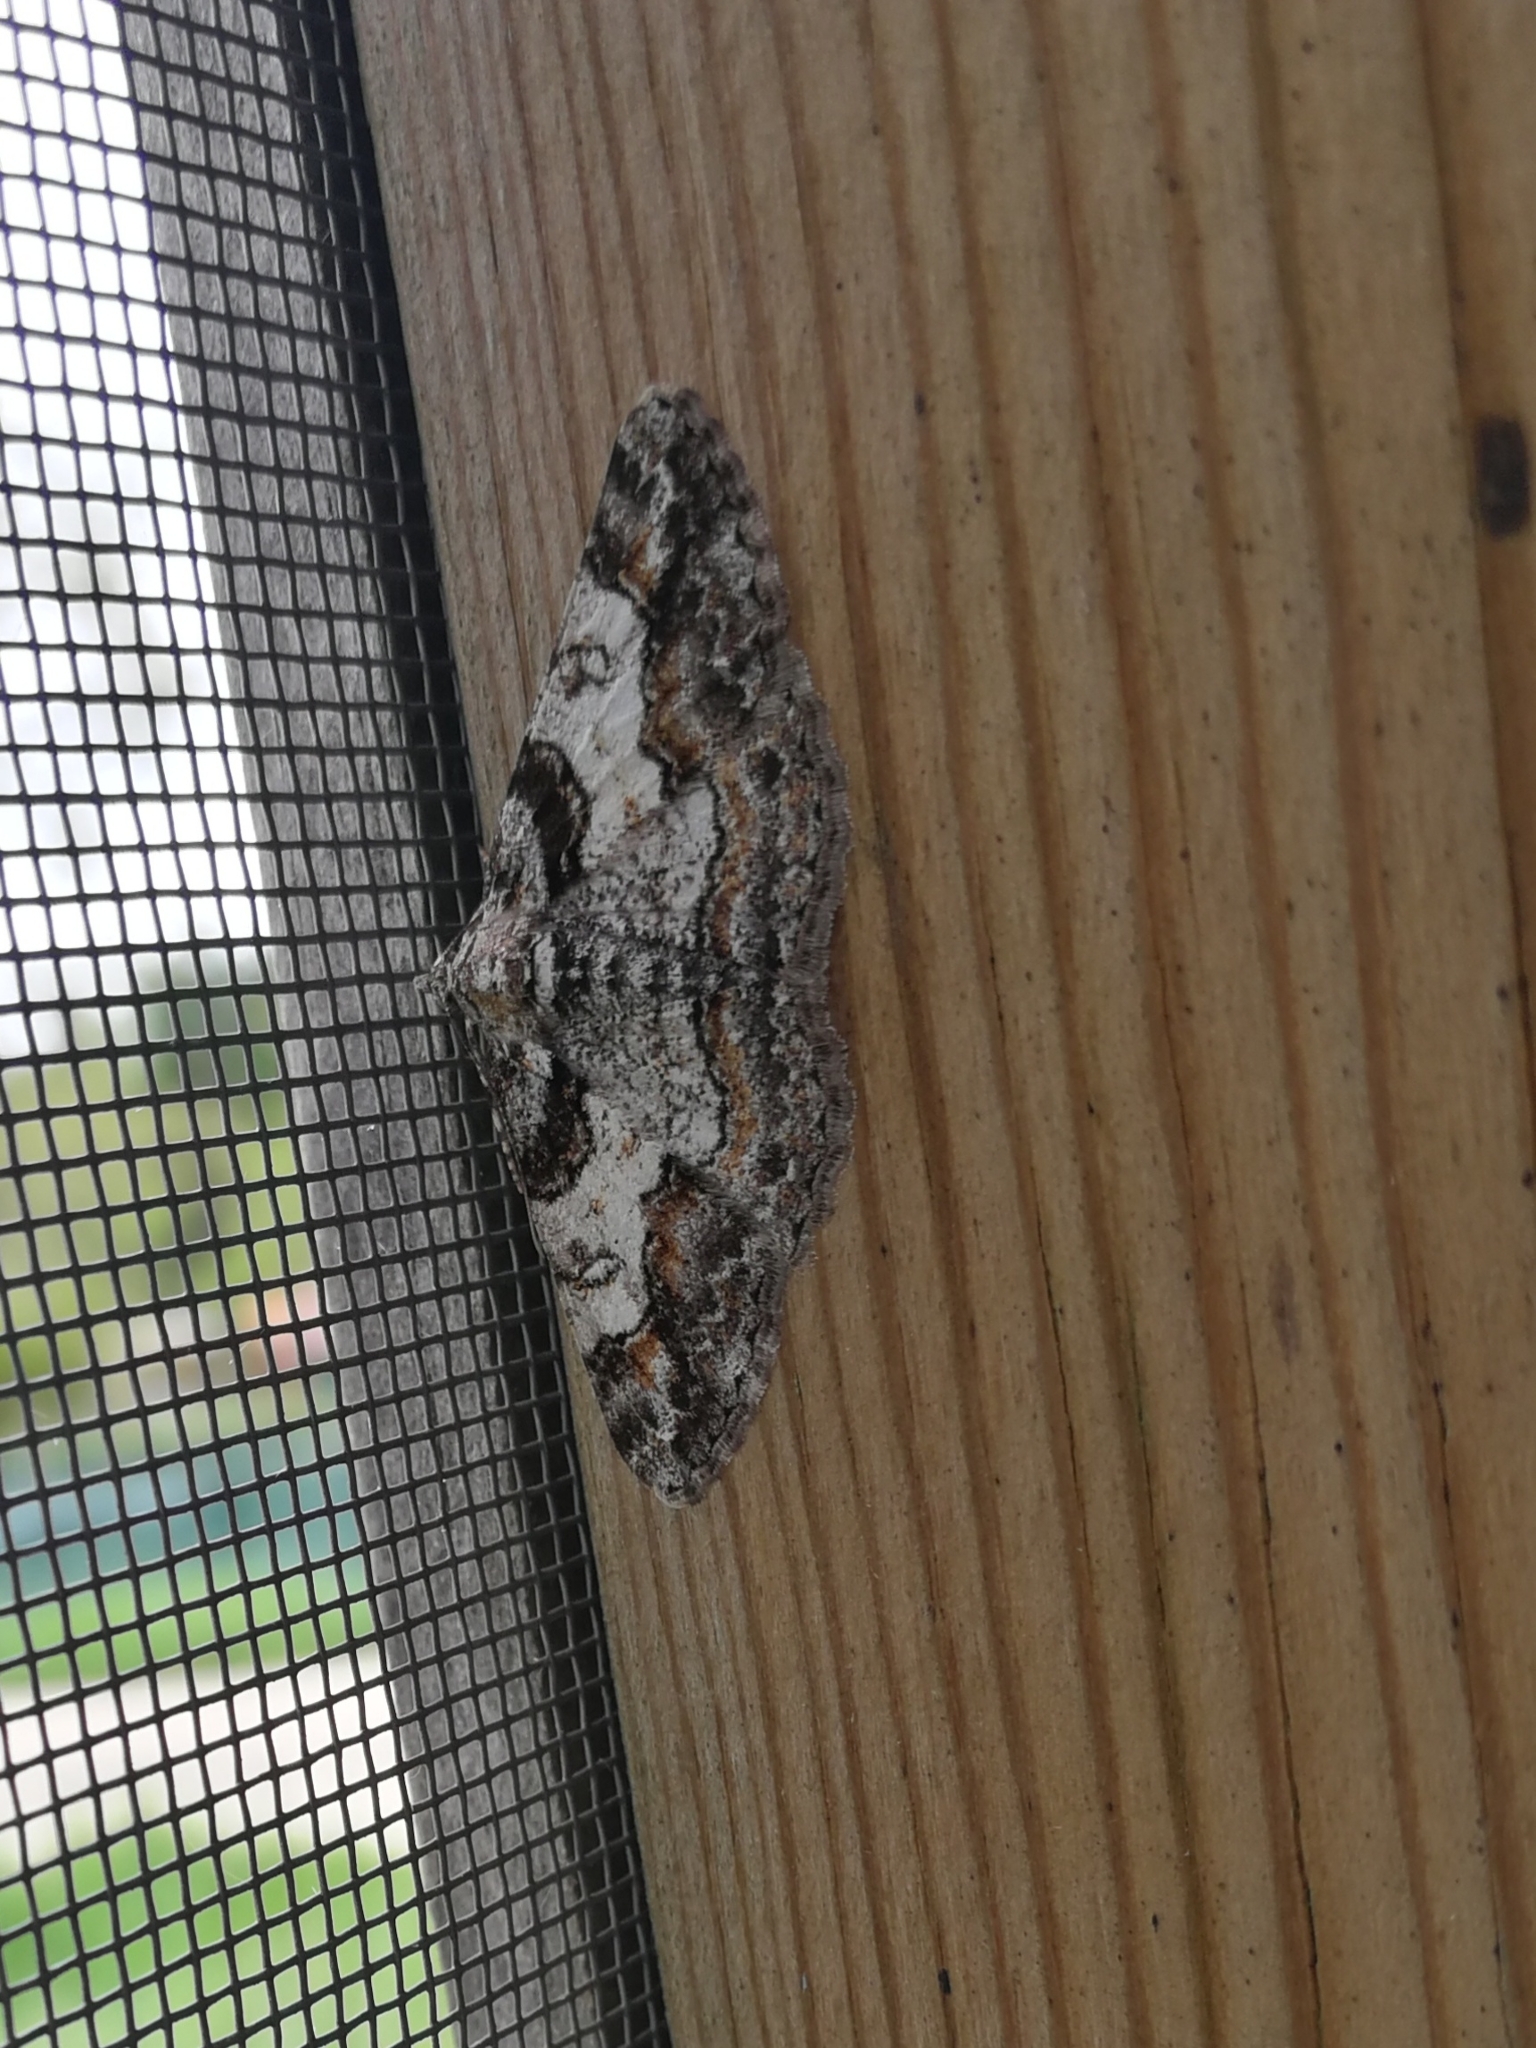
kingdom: Animalia
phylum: Arthropoda
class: Insecta
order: Lepidoptera
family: Geometridae
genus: Cleora
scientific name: Cleora cinctaria
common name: Ringed carpet
